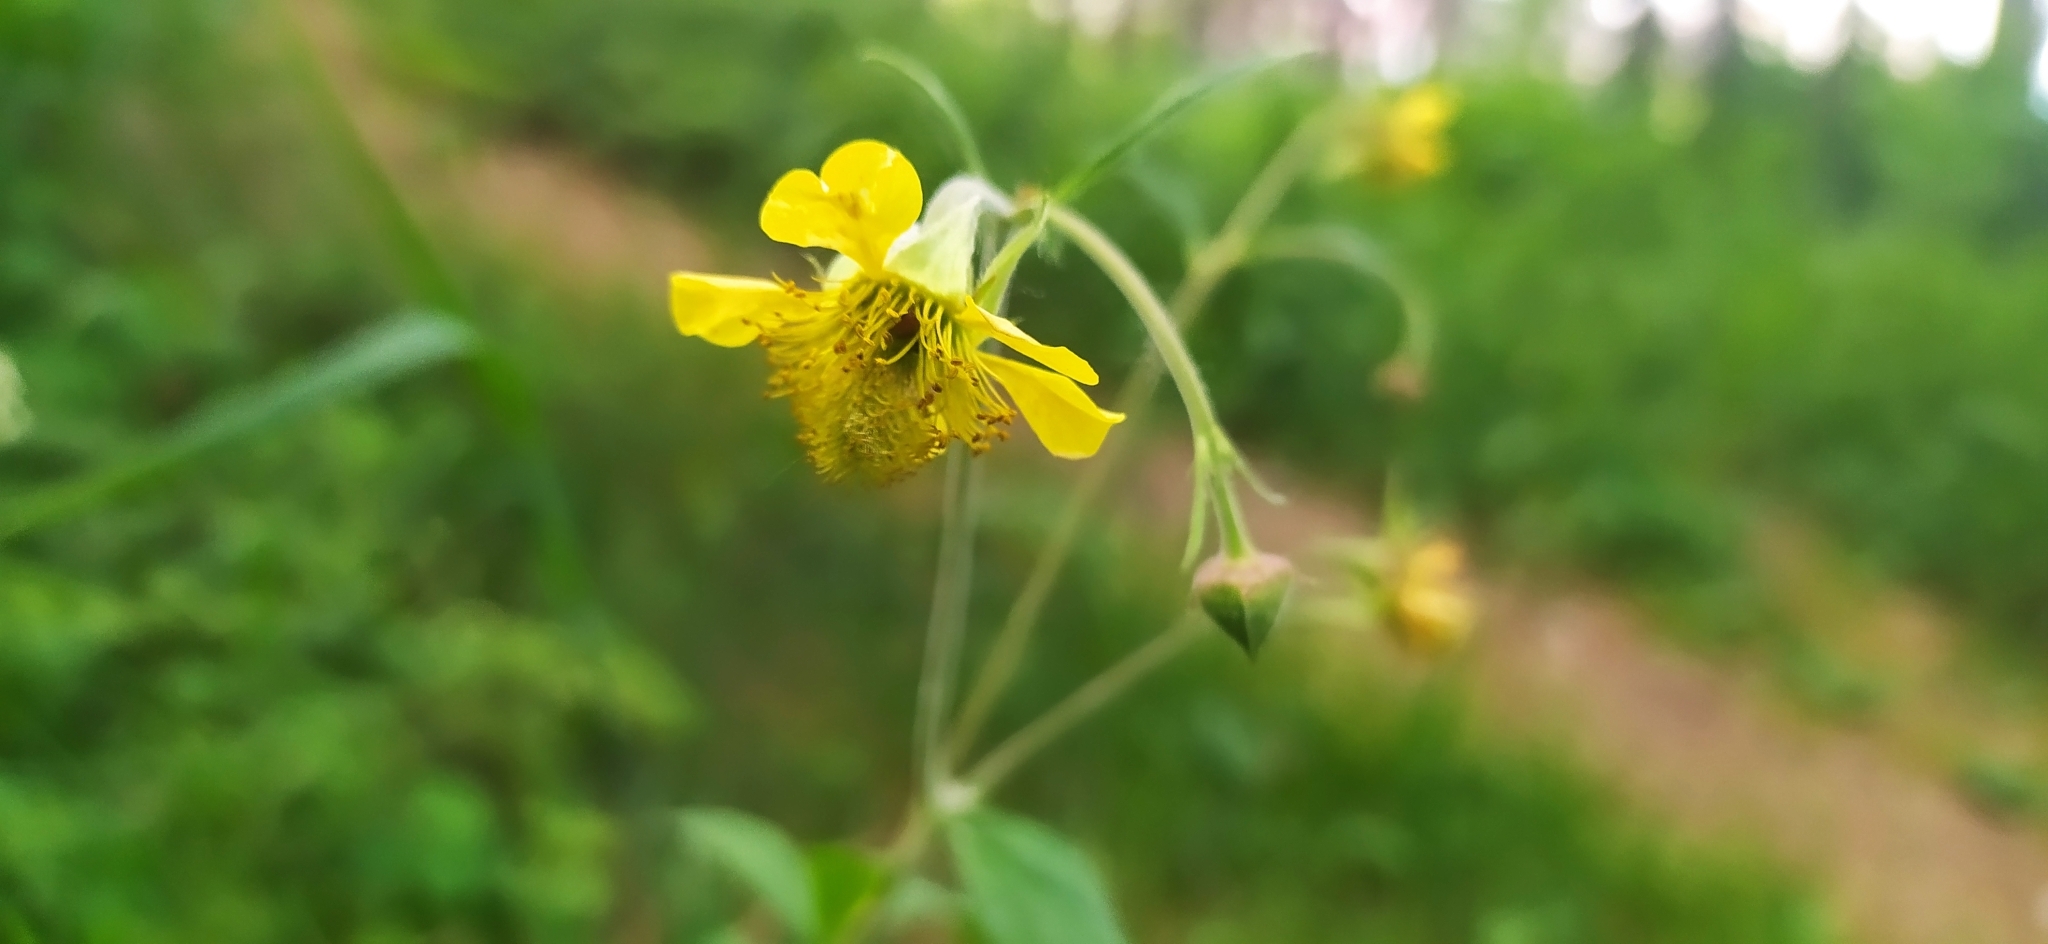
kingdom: Plantae
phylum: Tracheophyta
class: Magnoliopsida
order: Rosales
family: Rosaceae
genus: Geum
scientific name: Geum aurantiacum
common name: Orange avens
